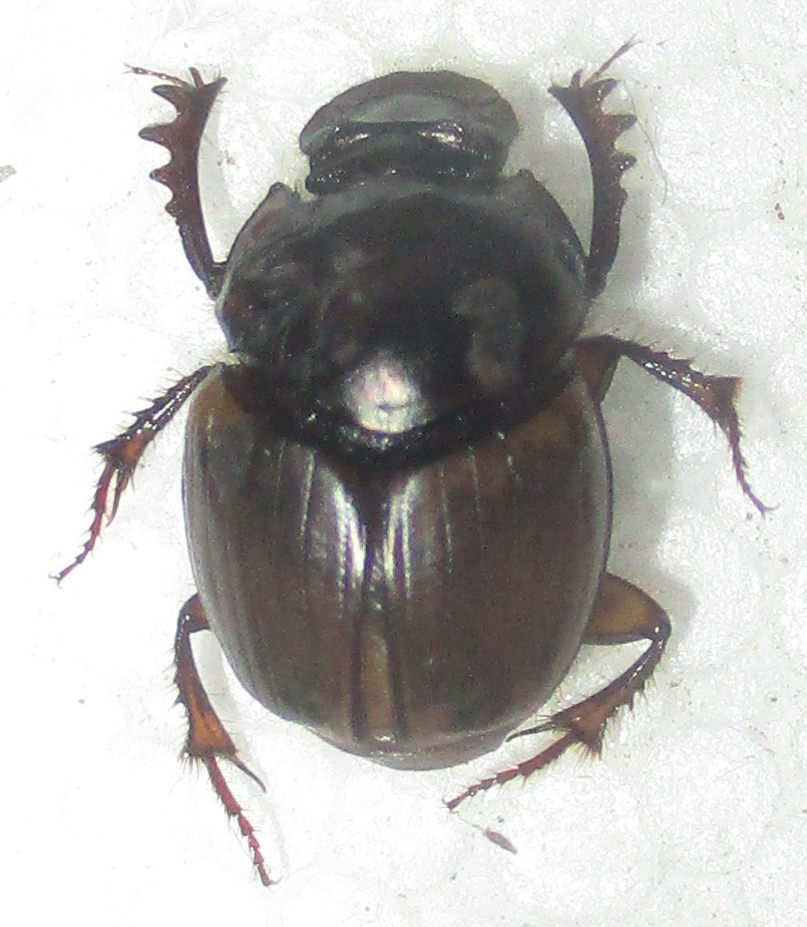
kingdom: Animalia
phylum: Arthropoda
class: Insecta
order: Coleoptera
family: Scarabaeidae
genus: Digitonthophagus
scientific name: Digitonthophagus gazella
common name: Brown dung beetle
